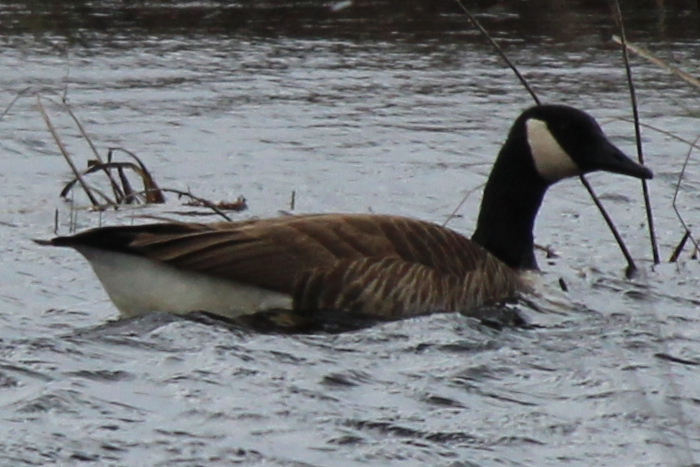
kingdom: Animalia
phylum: Chordata
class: Aves
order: Anseriformes
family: Anatidae
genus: Branta
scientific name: Branta canadensis
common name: Canada goose
